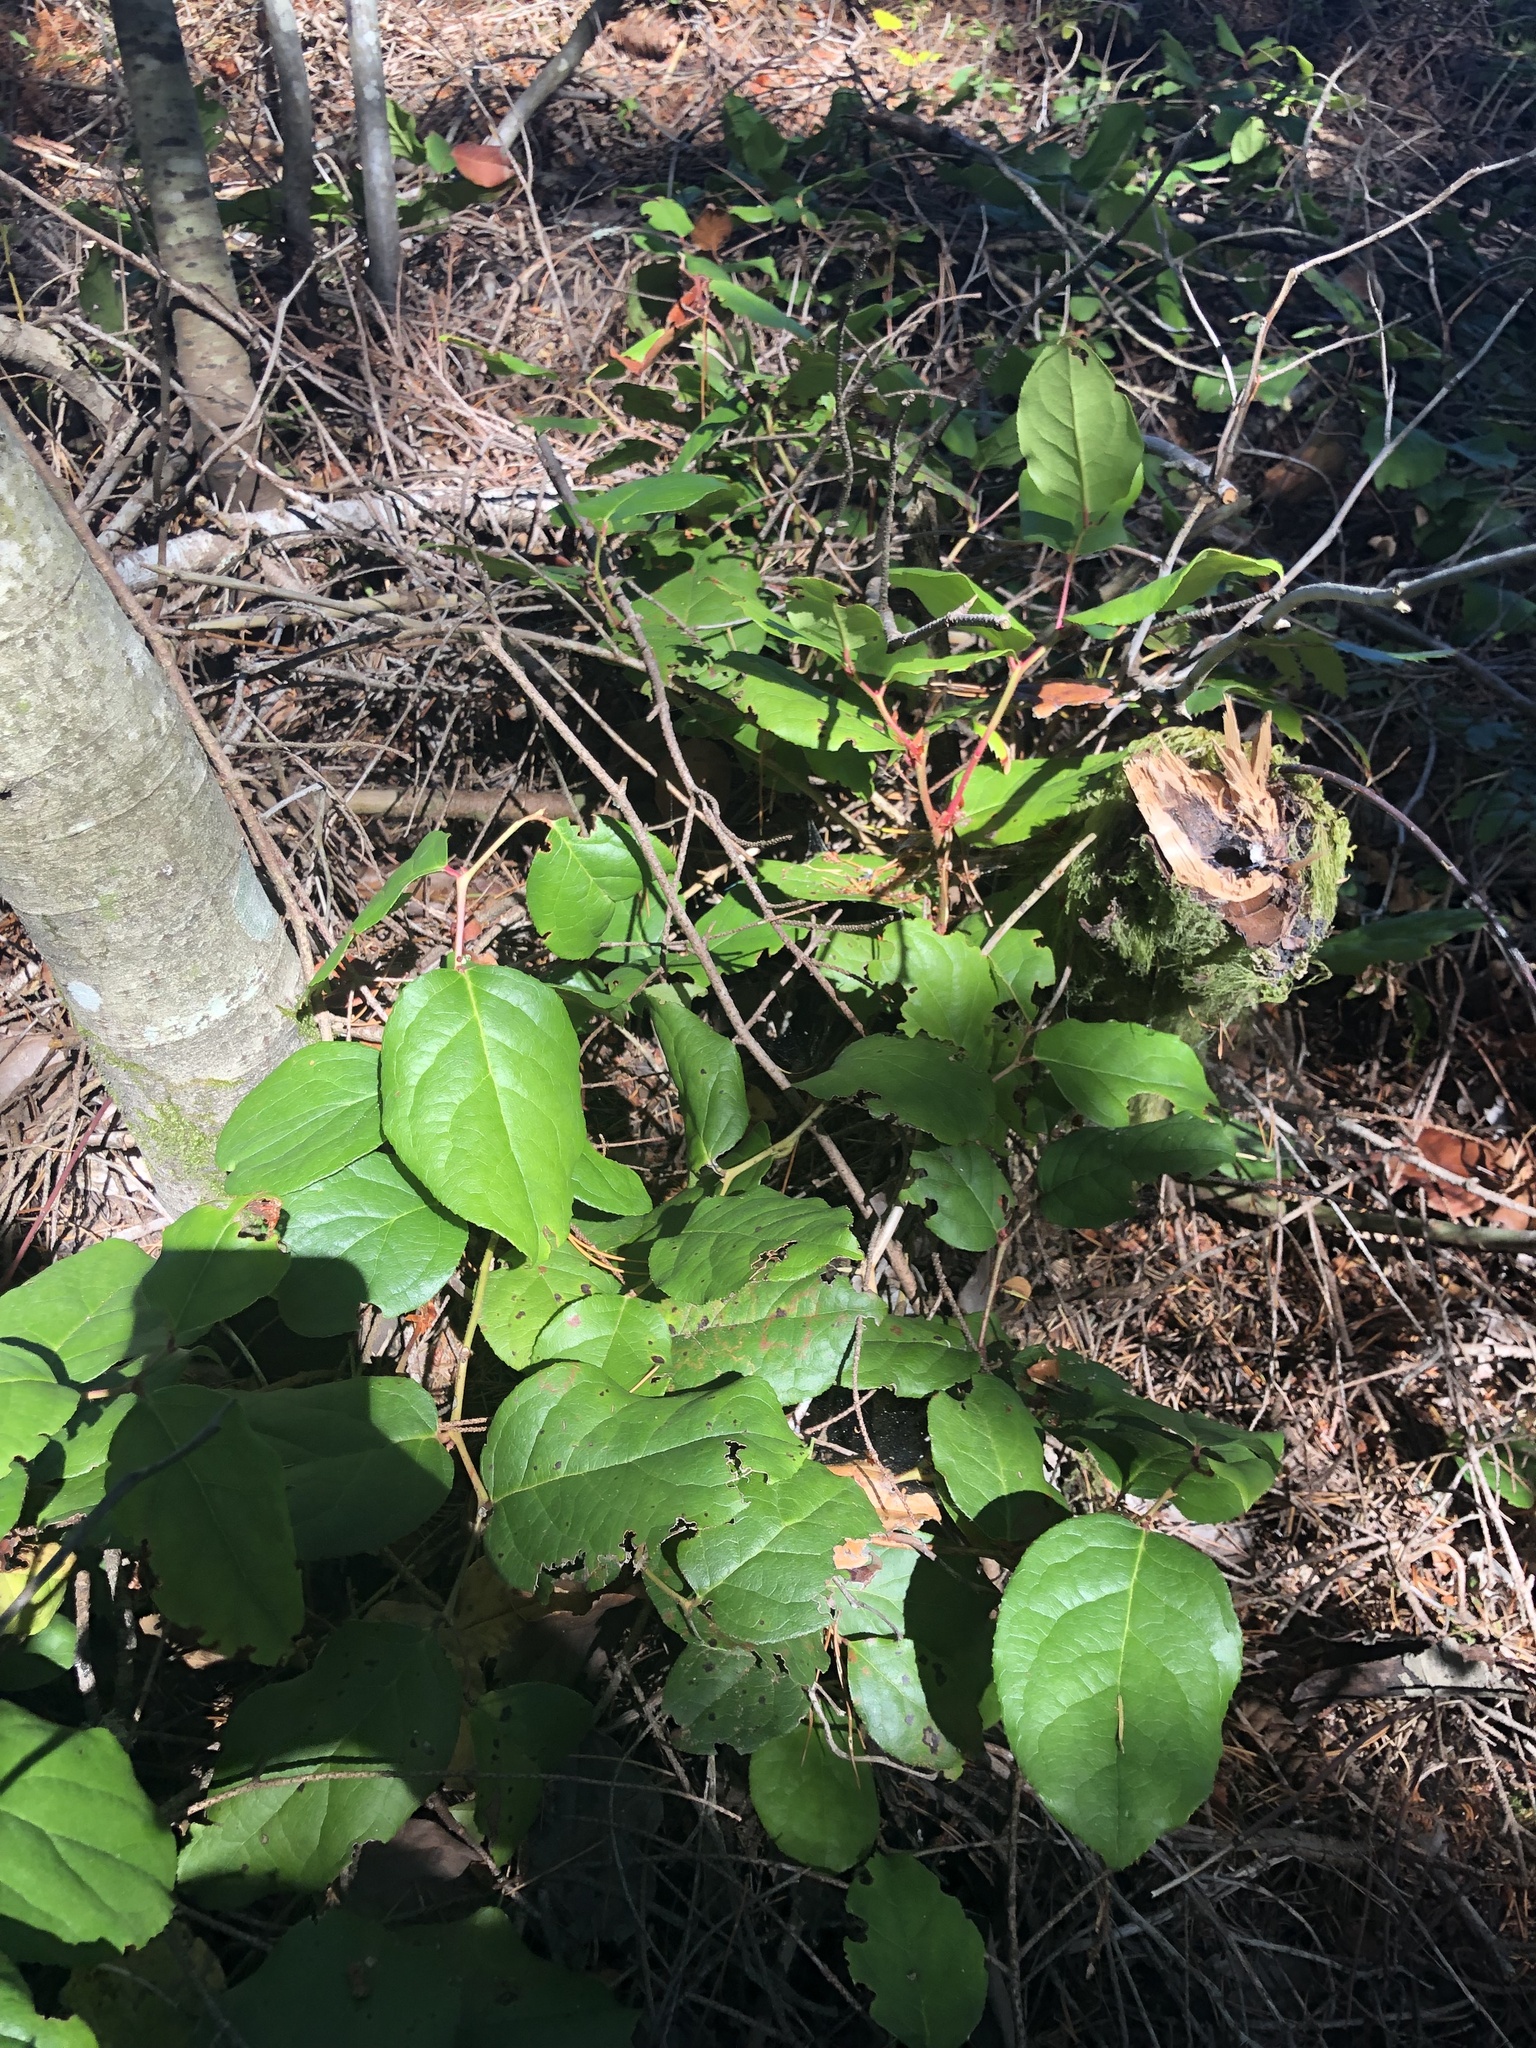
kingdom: Plantae
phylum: Tracheophyta
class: Magnoliopsida
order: Ericales
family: Ericaceae
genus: Gaultheria
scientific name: Gaultheria shallon
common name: Shallon
